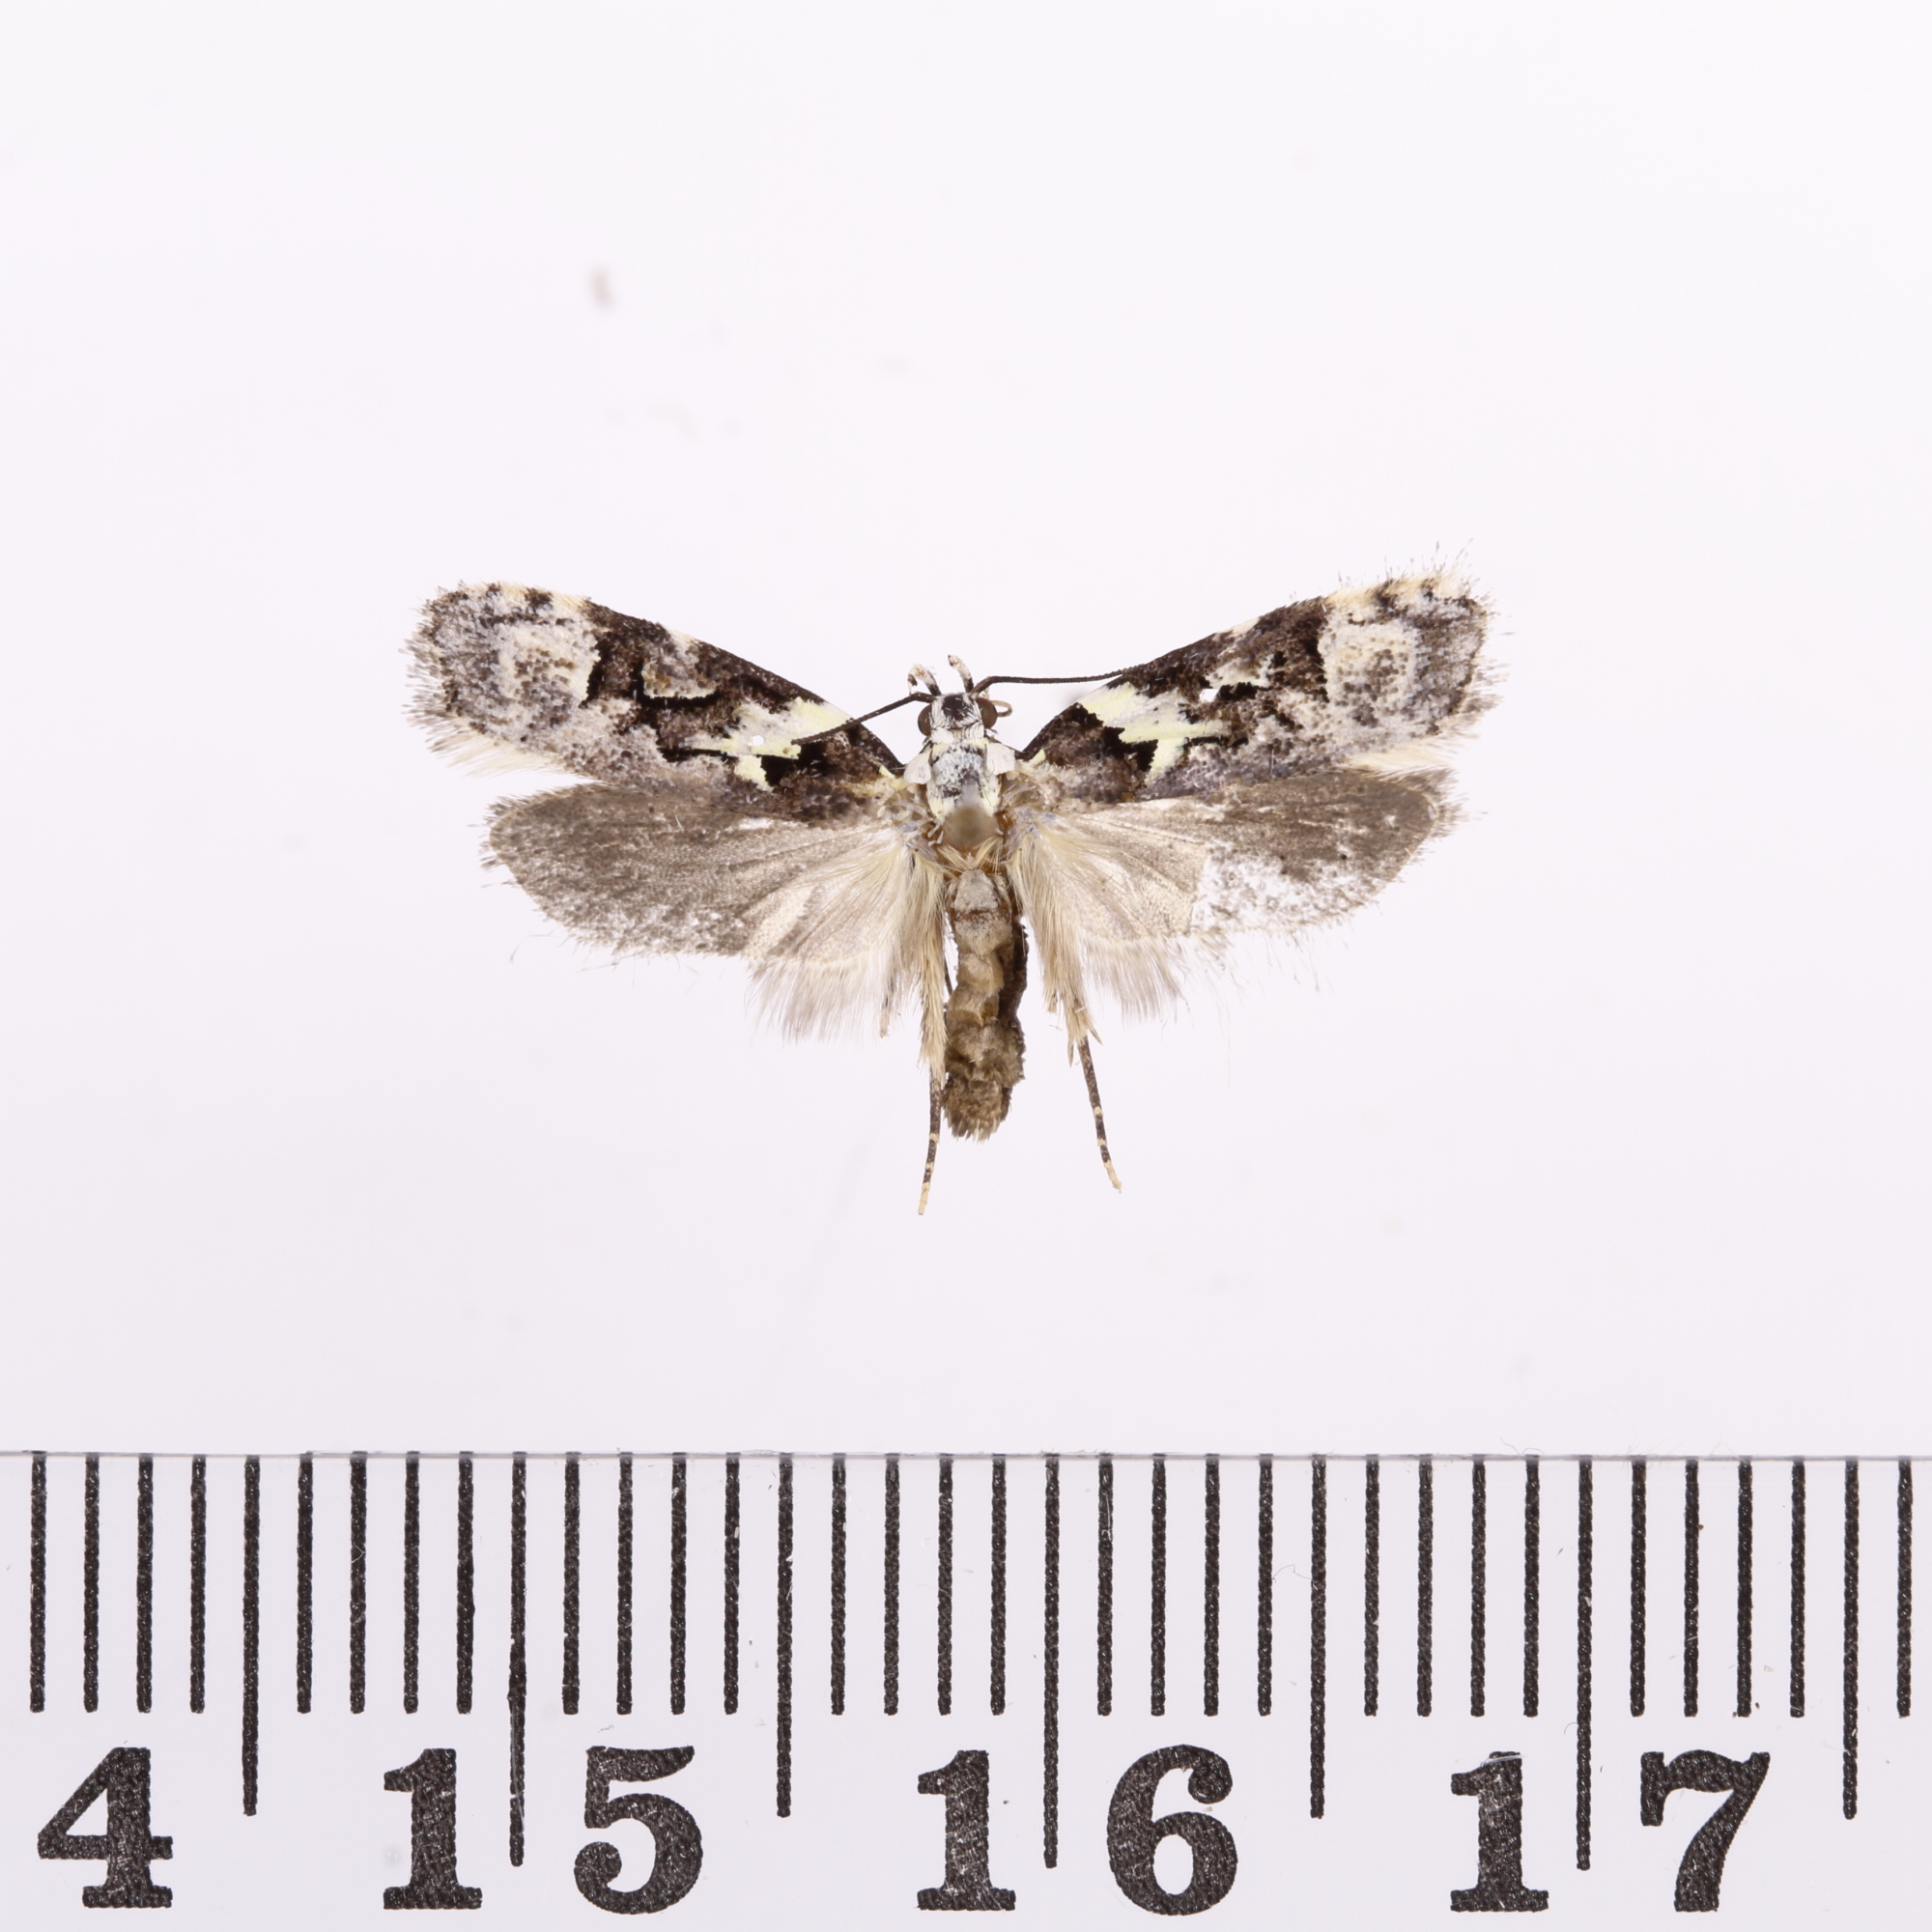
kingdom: Animalia
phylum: Arthropoda
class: Insecta
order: Lepidoptera
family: Oecophoridae
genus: Izatha
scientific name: Izatha epiphanes
